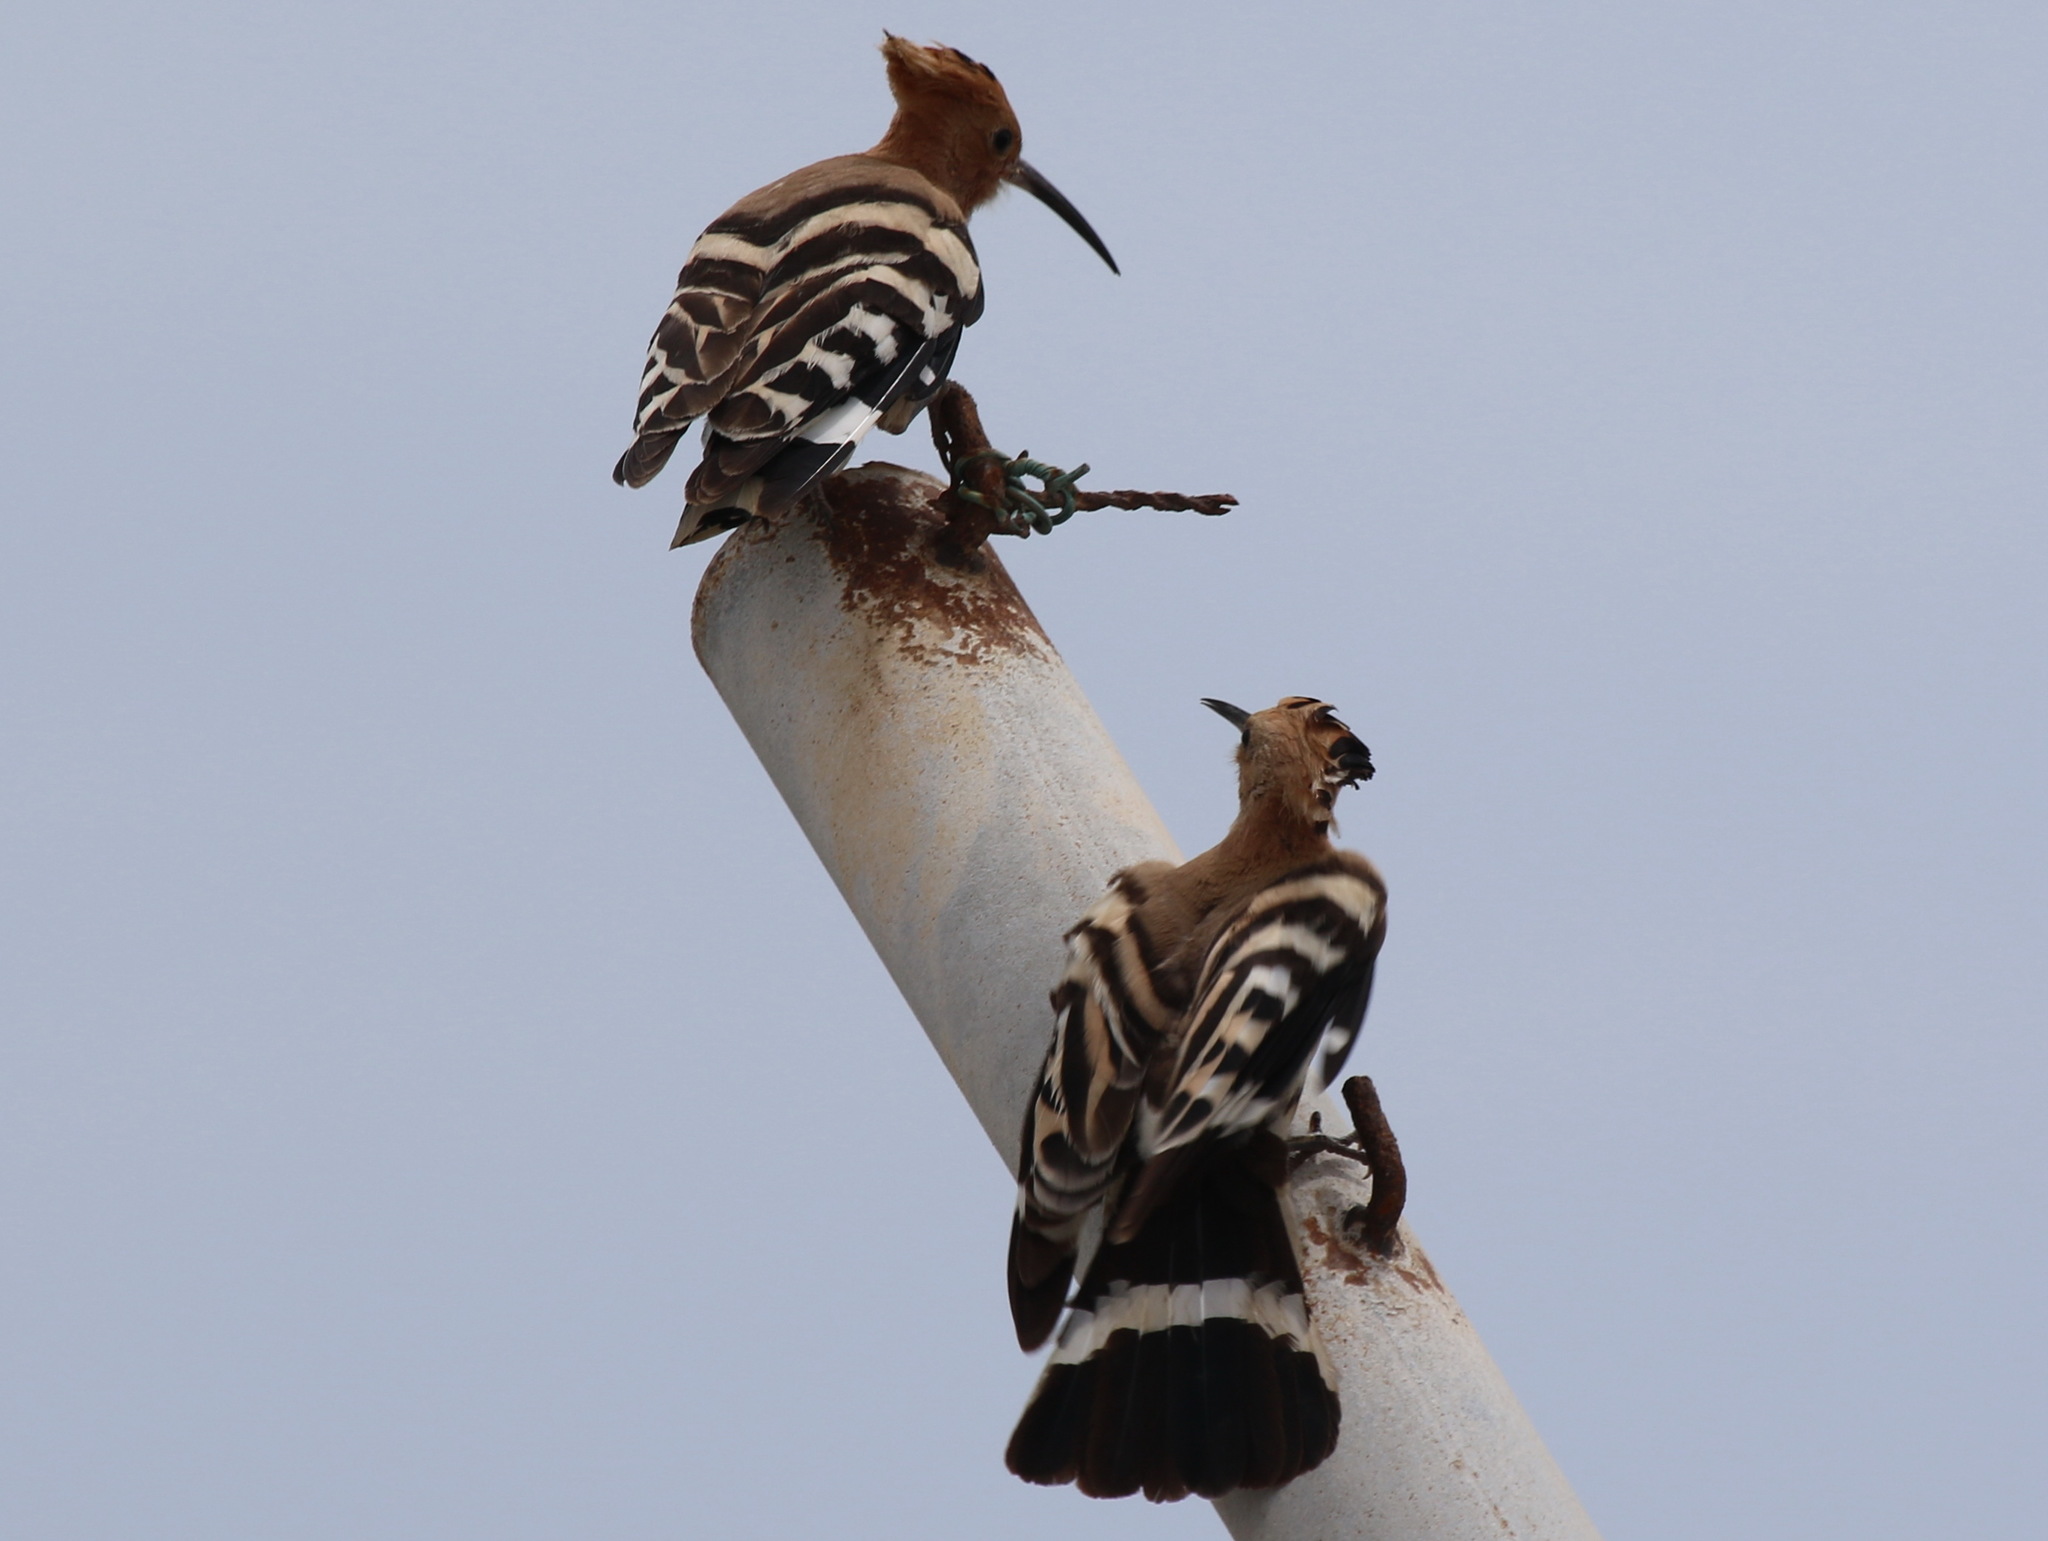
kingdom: Animalia
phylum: Chordata
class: Aves
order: Bucerotiformes
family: Upupidae
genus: Upupa
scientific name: Upupa epops
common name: Eurasian hoopoe
